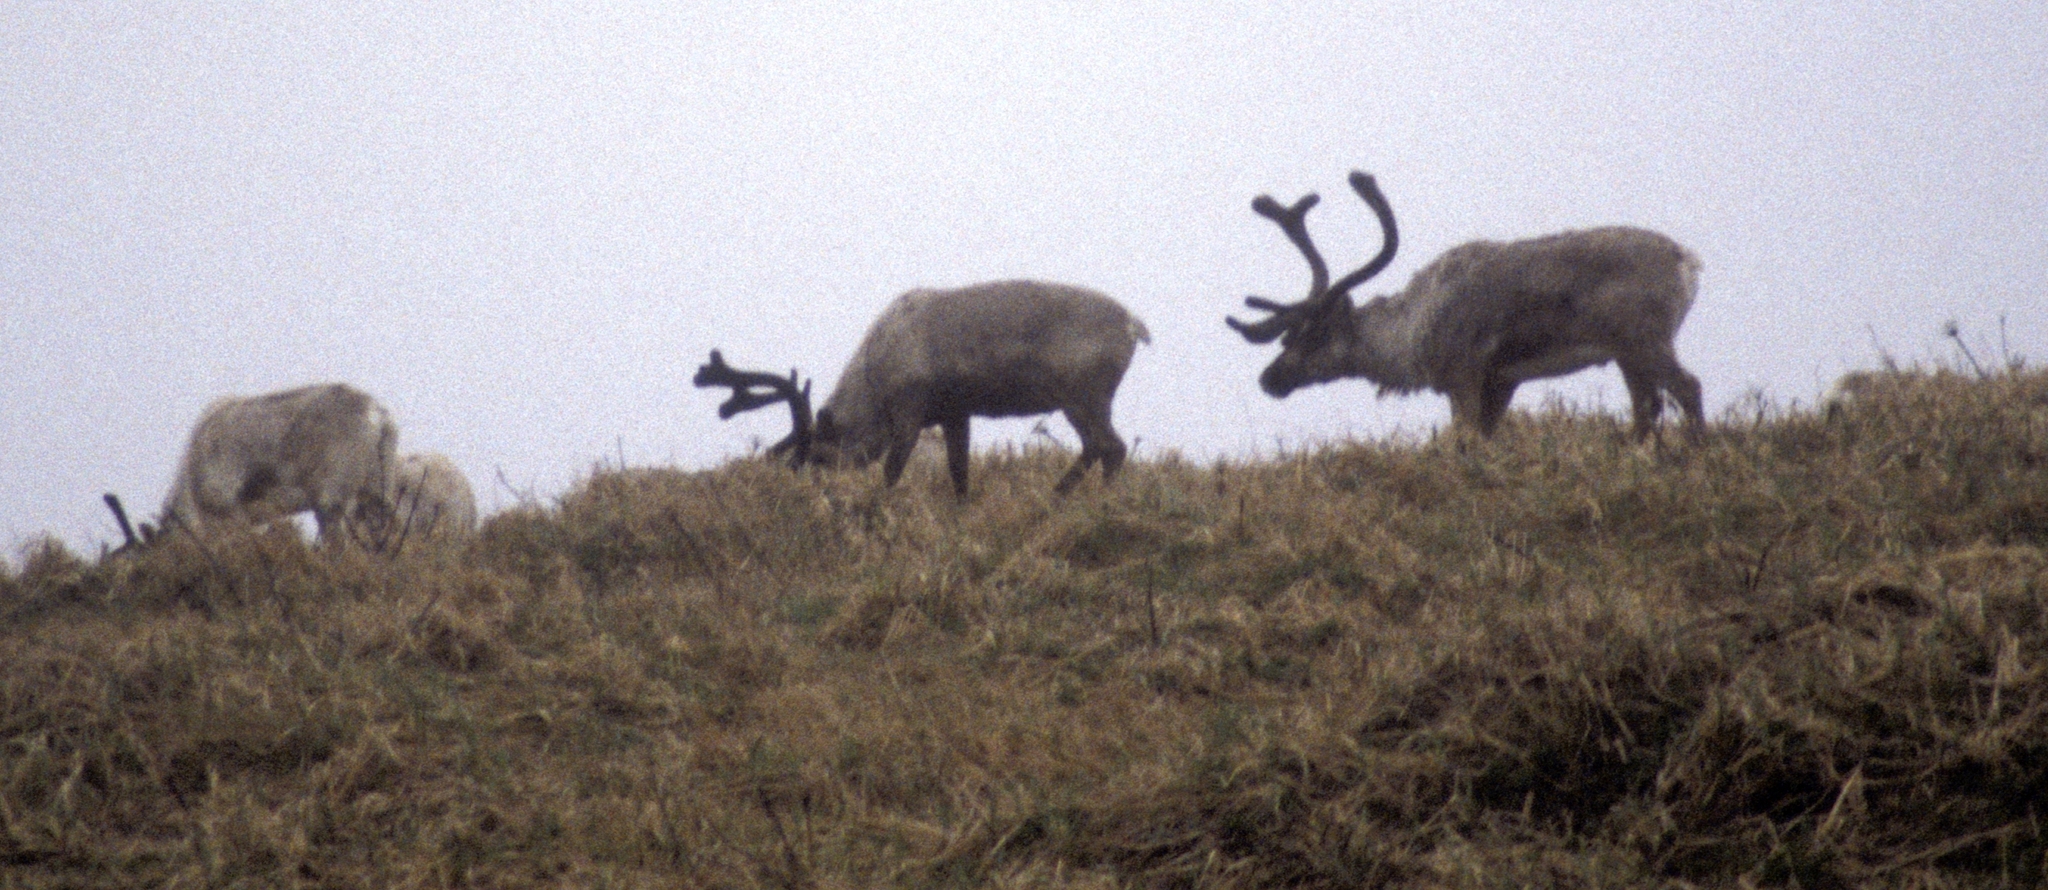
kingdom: Animalia
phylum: Chordata
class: Mammalia
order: Artiodactyla
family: Cervidae
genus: Rangifer
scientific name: Rangifer tarandus
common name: Reindeer
